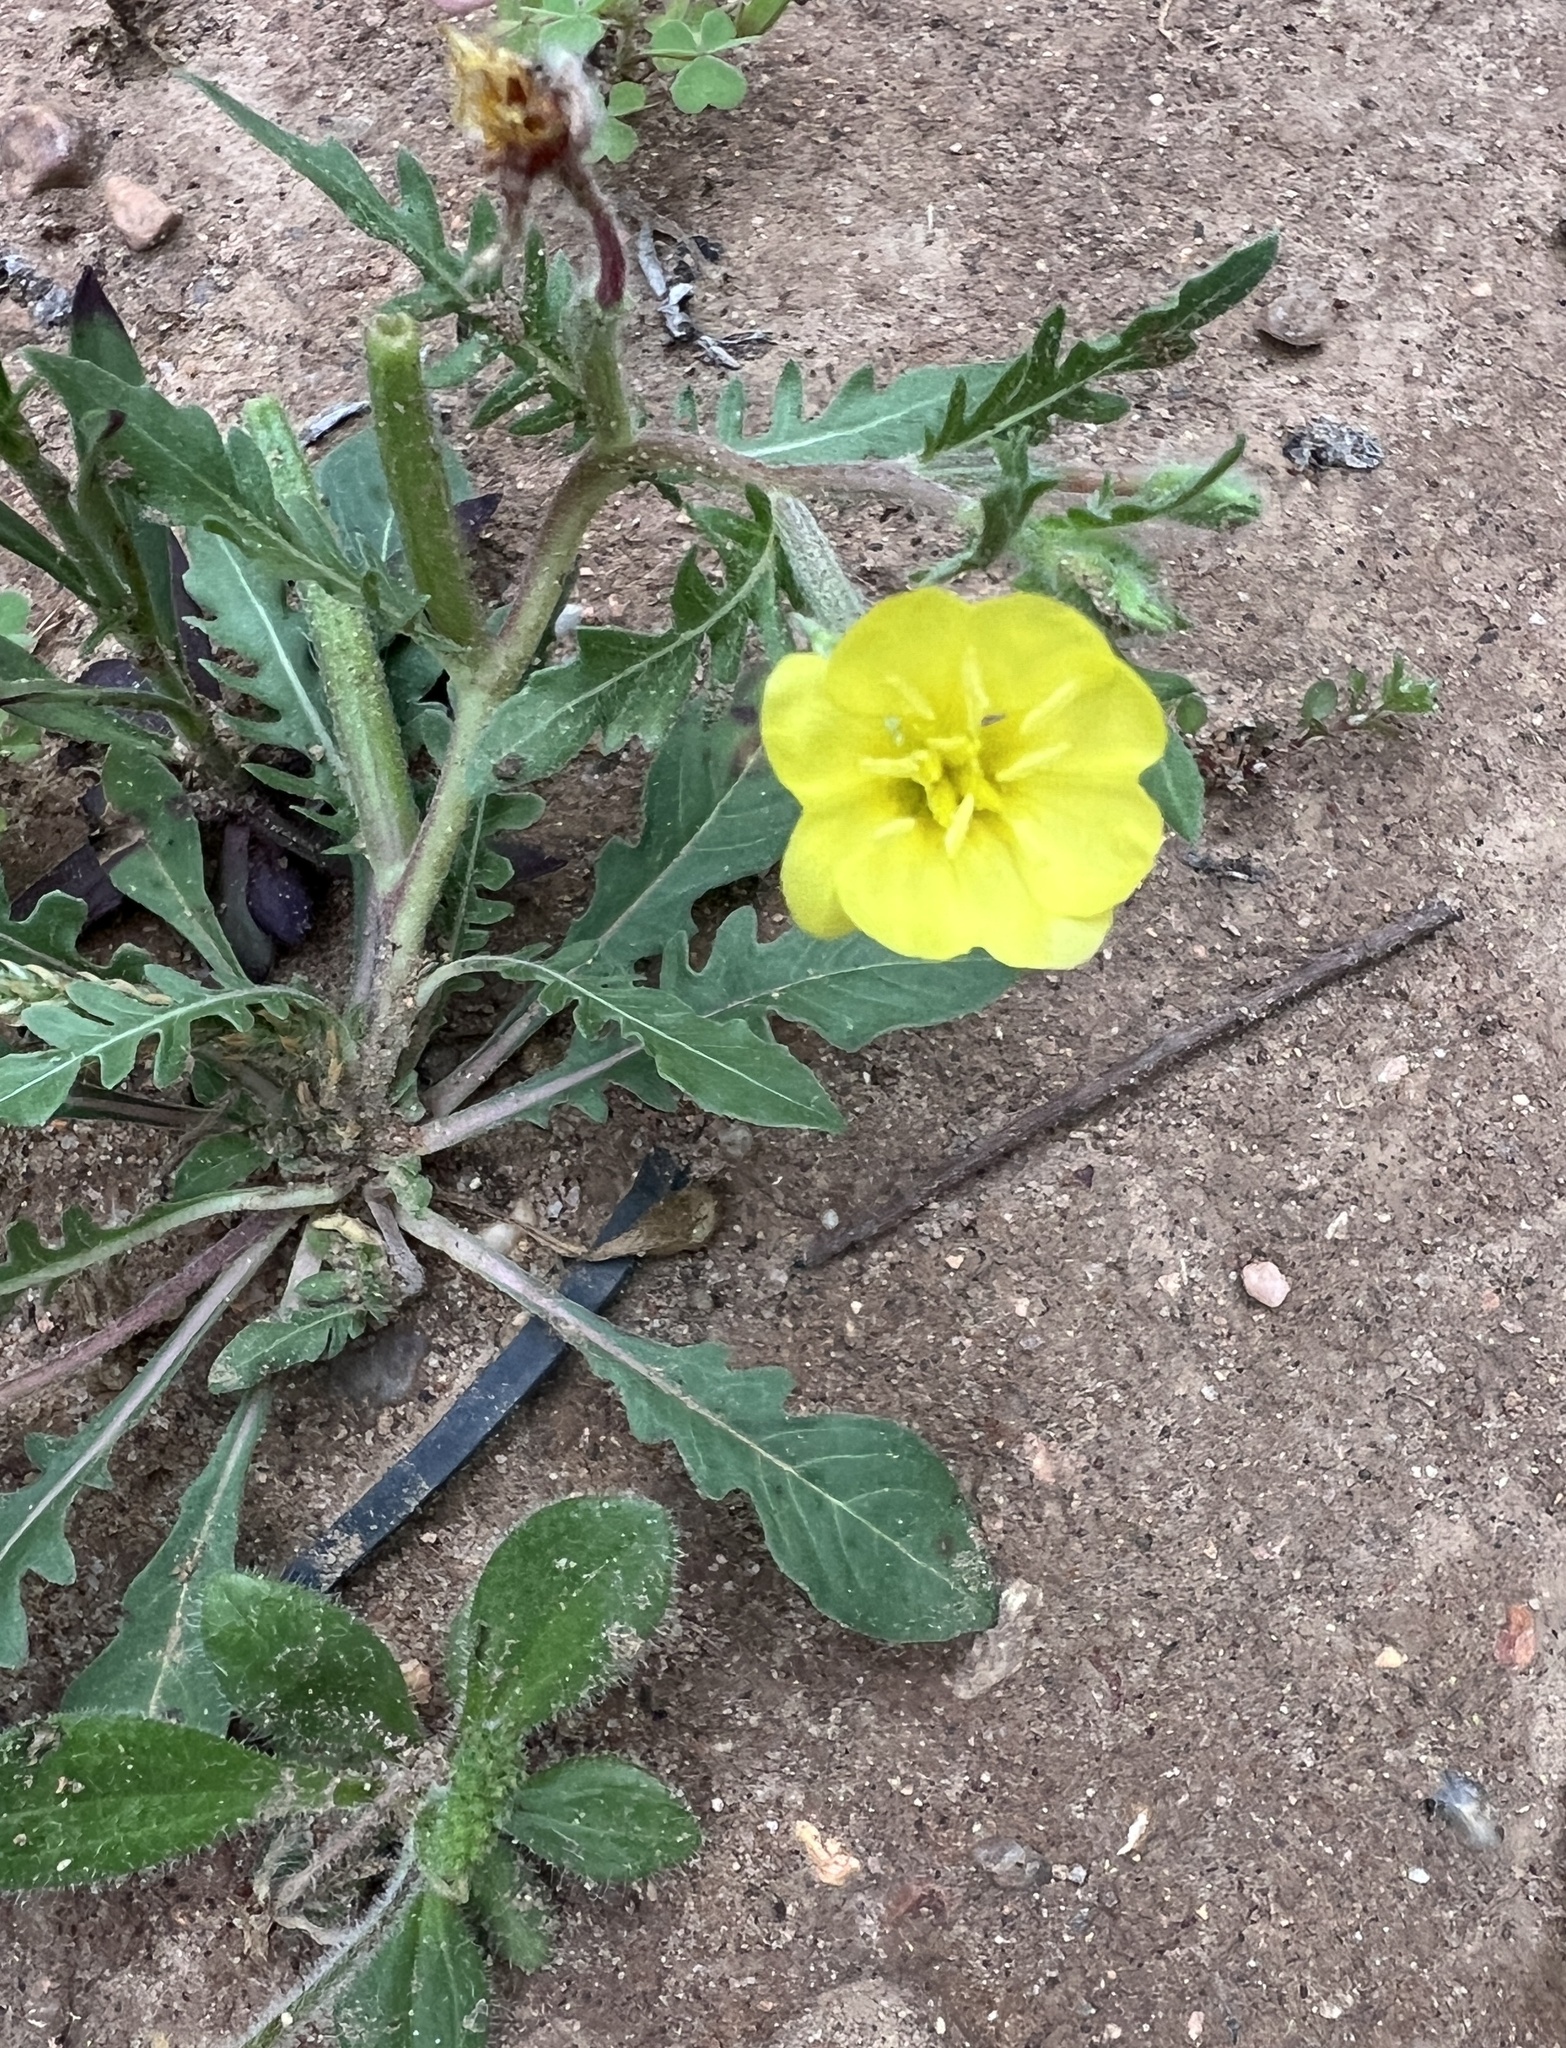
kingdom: Plantae
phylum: Tracheophyta
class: Magnoliopsida
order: Myrtales
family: Onagraceae
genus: Oenothera
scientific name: Oenothera laciniata
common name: Cut-leaved evening-primrose
